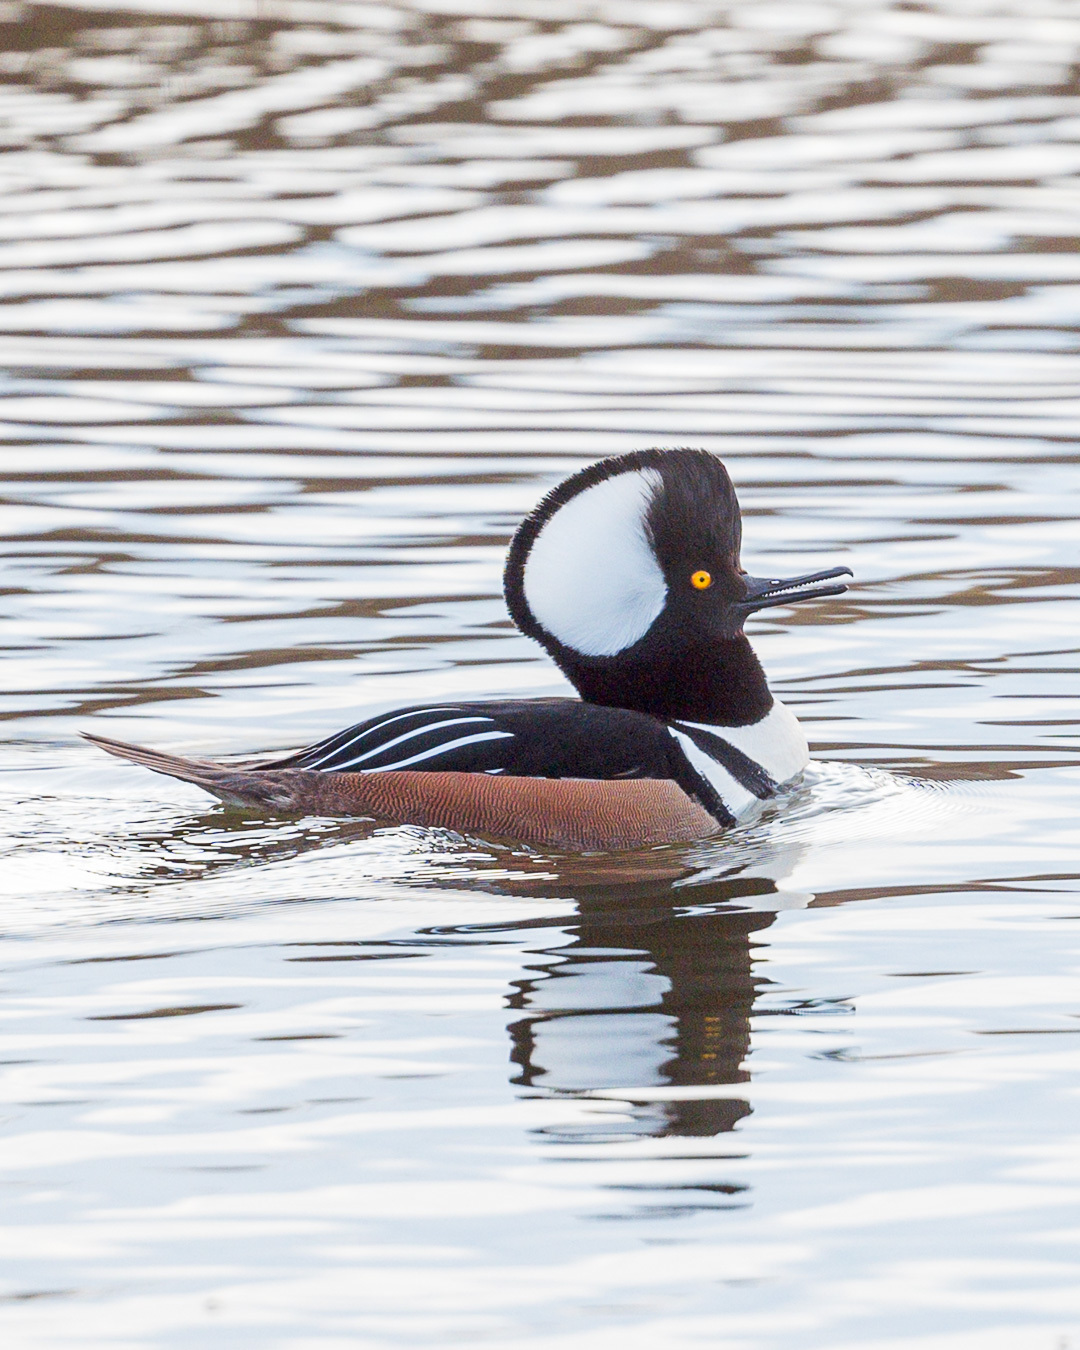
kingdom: Animalia
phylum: Chordata
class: Aves
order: Anseriformes
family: Anatidae
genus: Lophodytes
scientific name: Lophodytes cucullatus
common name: Hooded merganser
